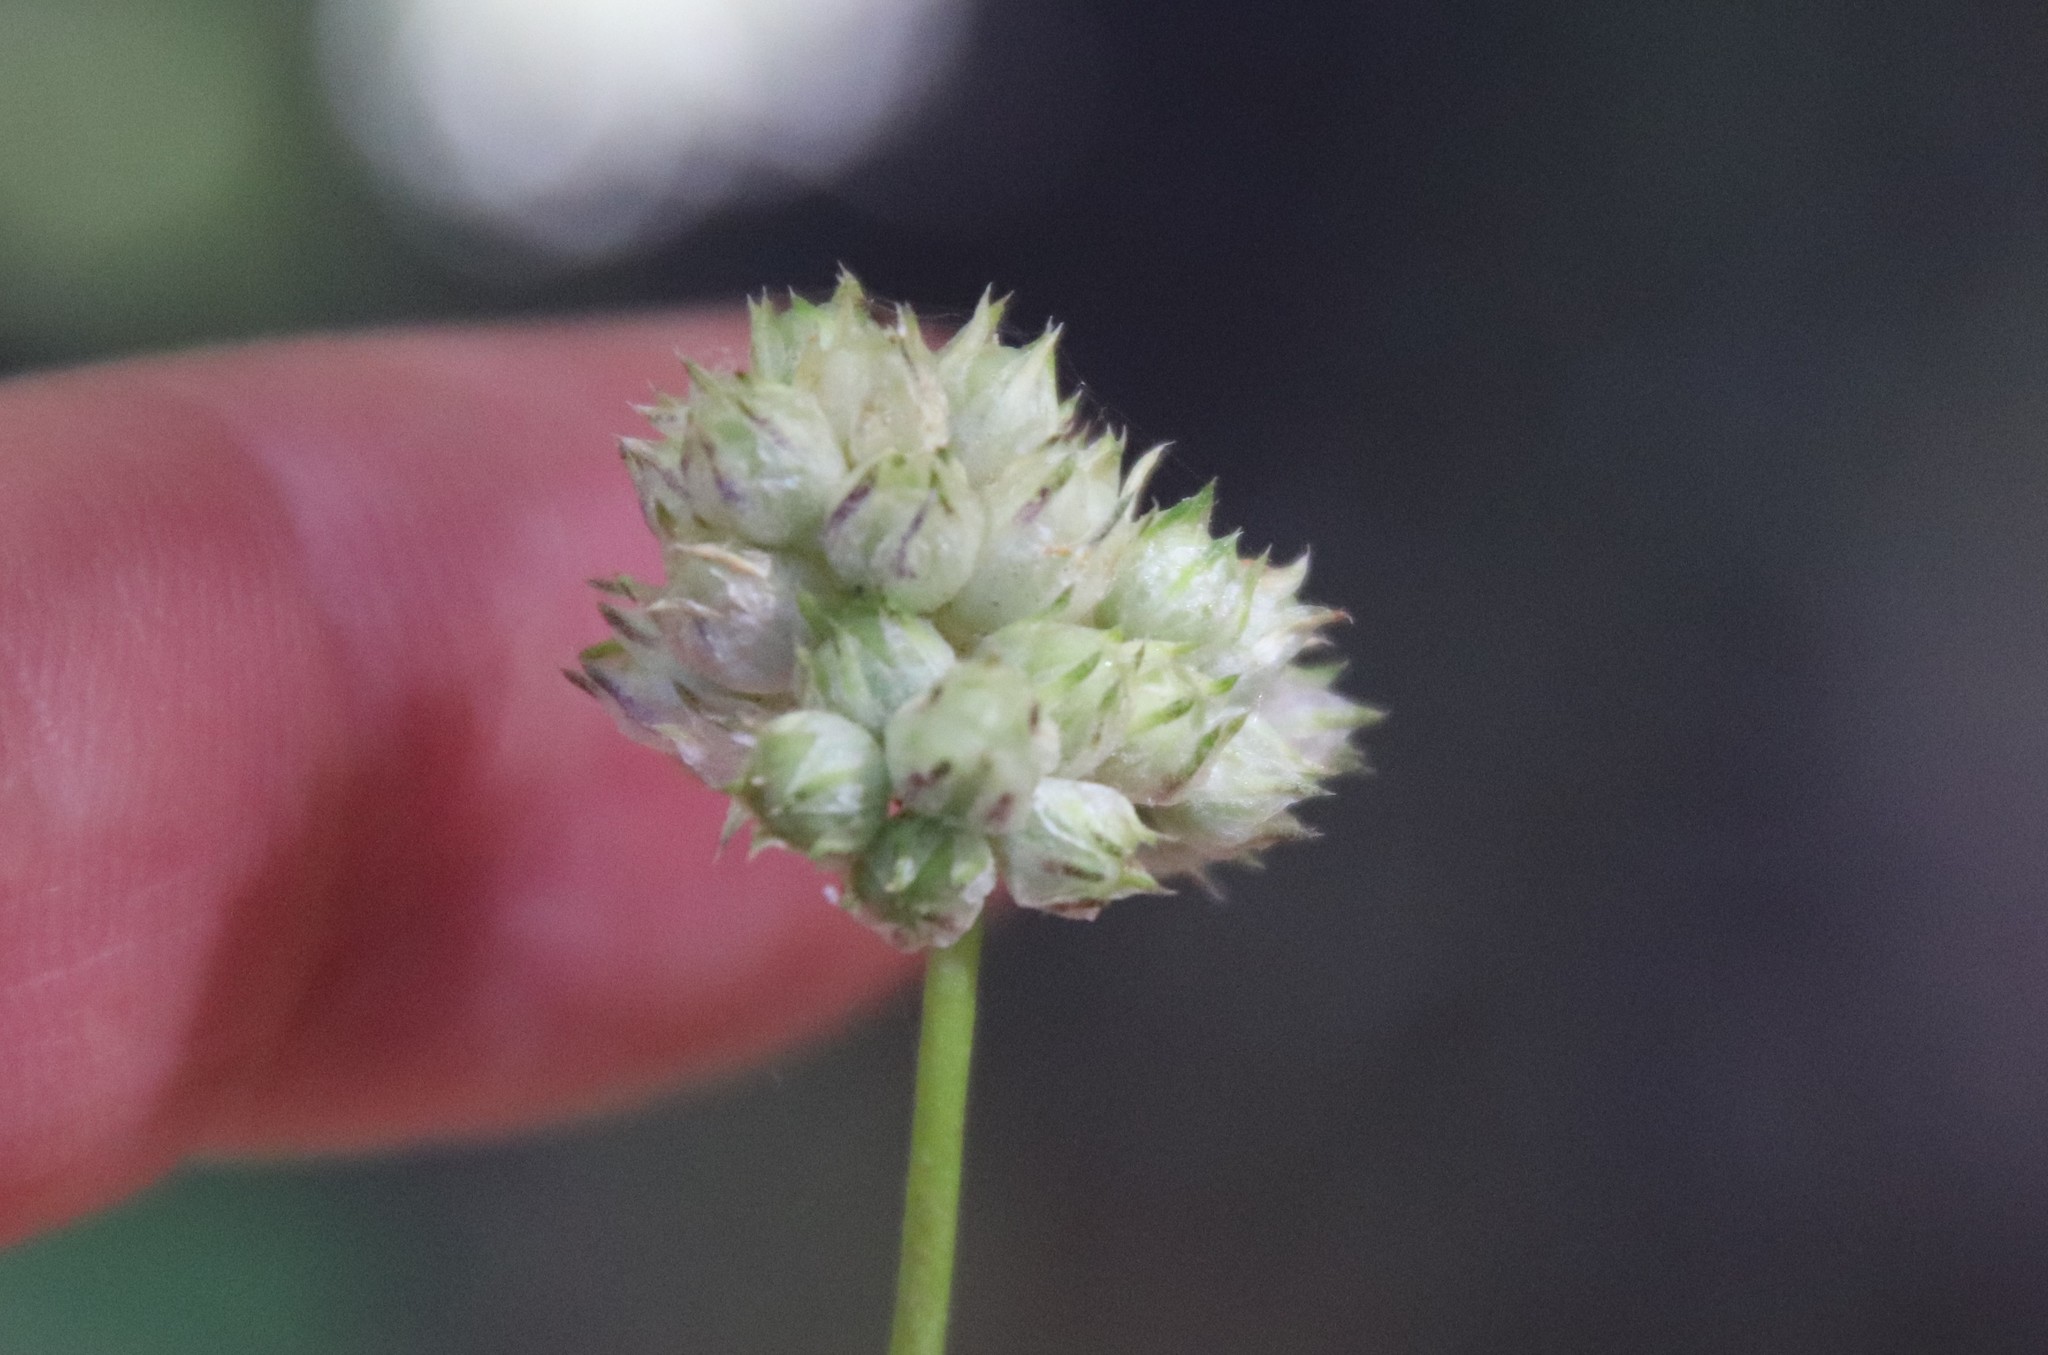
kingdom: Plantae
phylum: Tracheophyta
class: Magnoliopsida
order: Ericales
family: Polemoniaceae
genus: Gilia
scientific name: Gilia capitata
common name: Bluehead gilia
